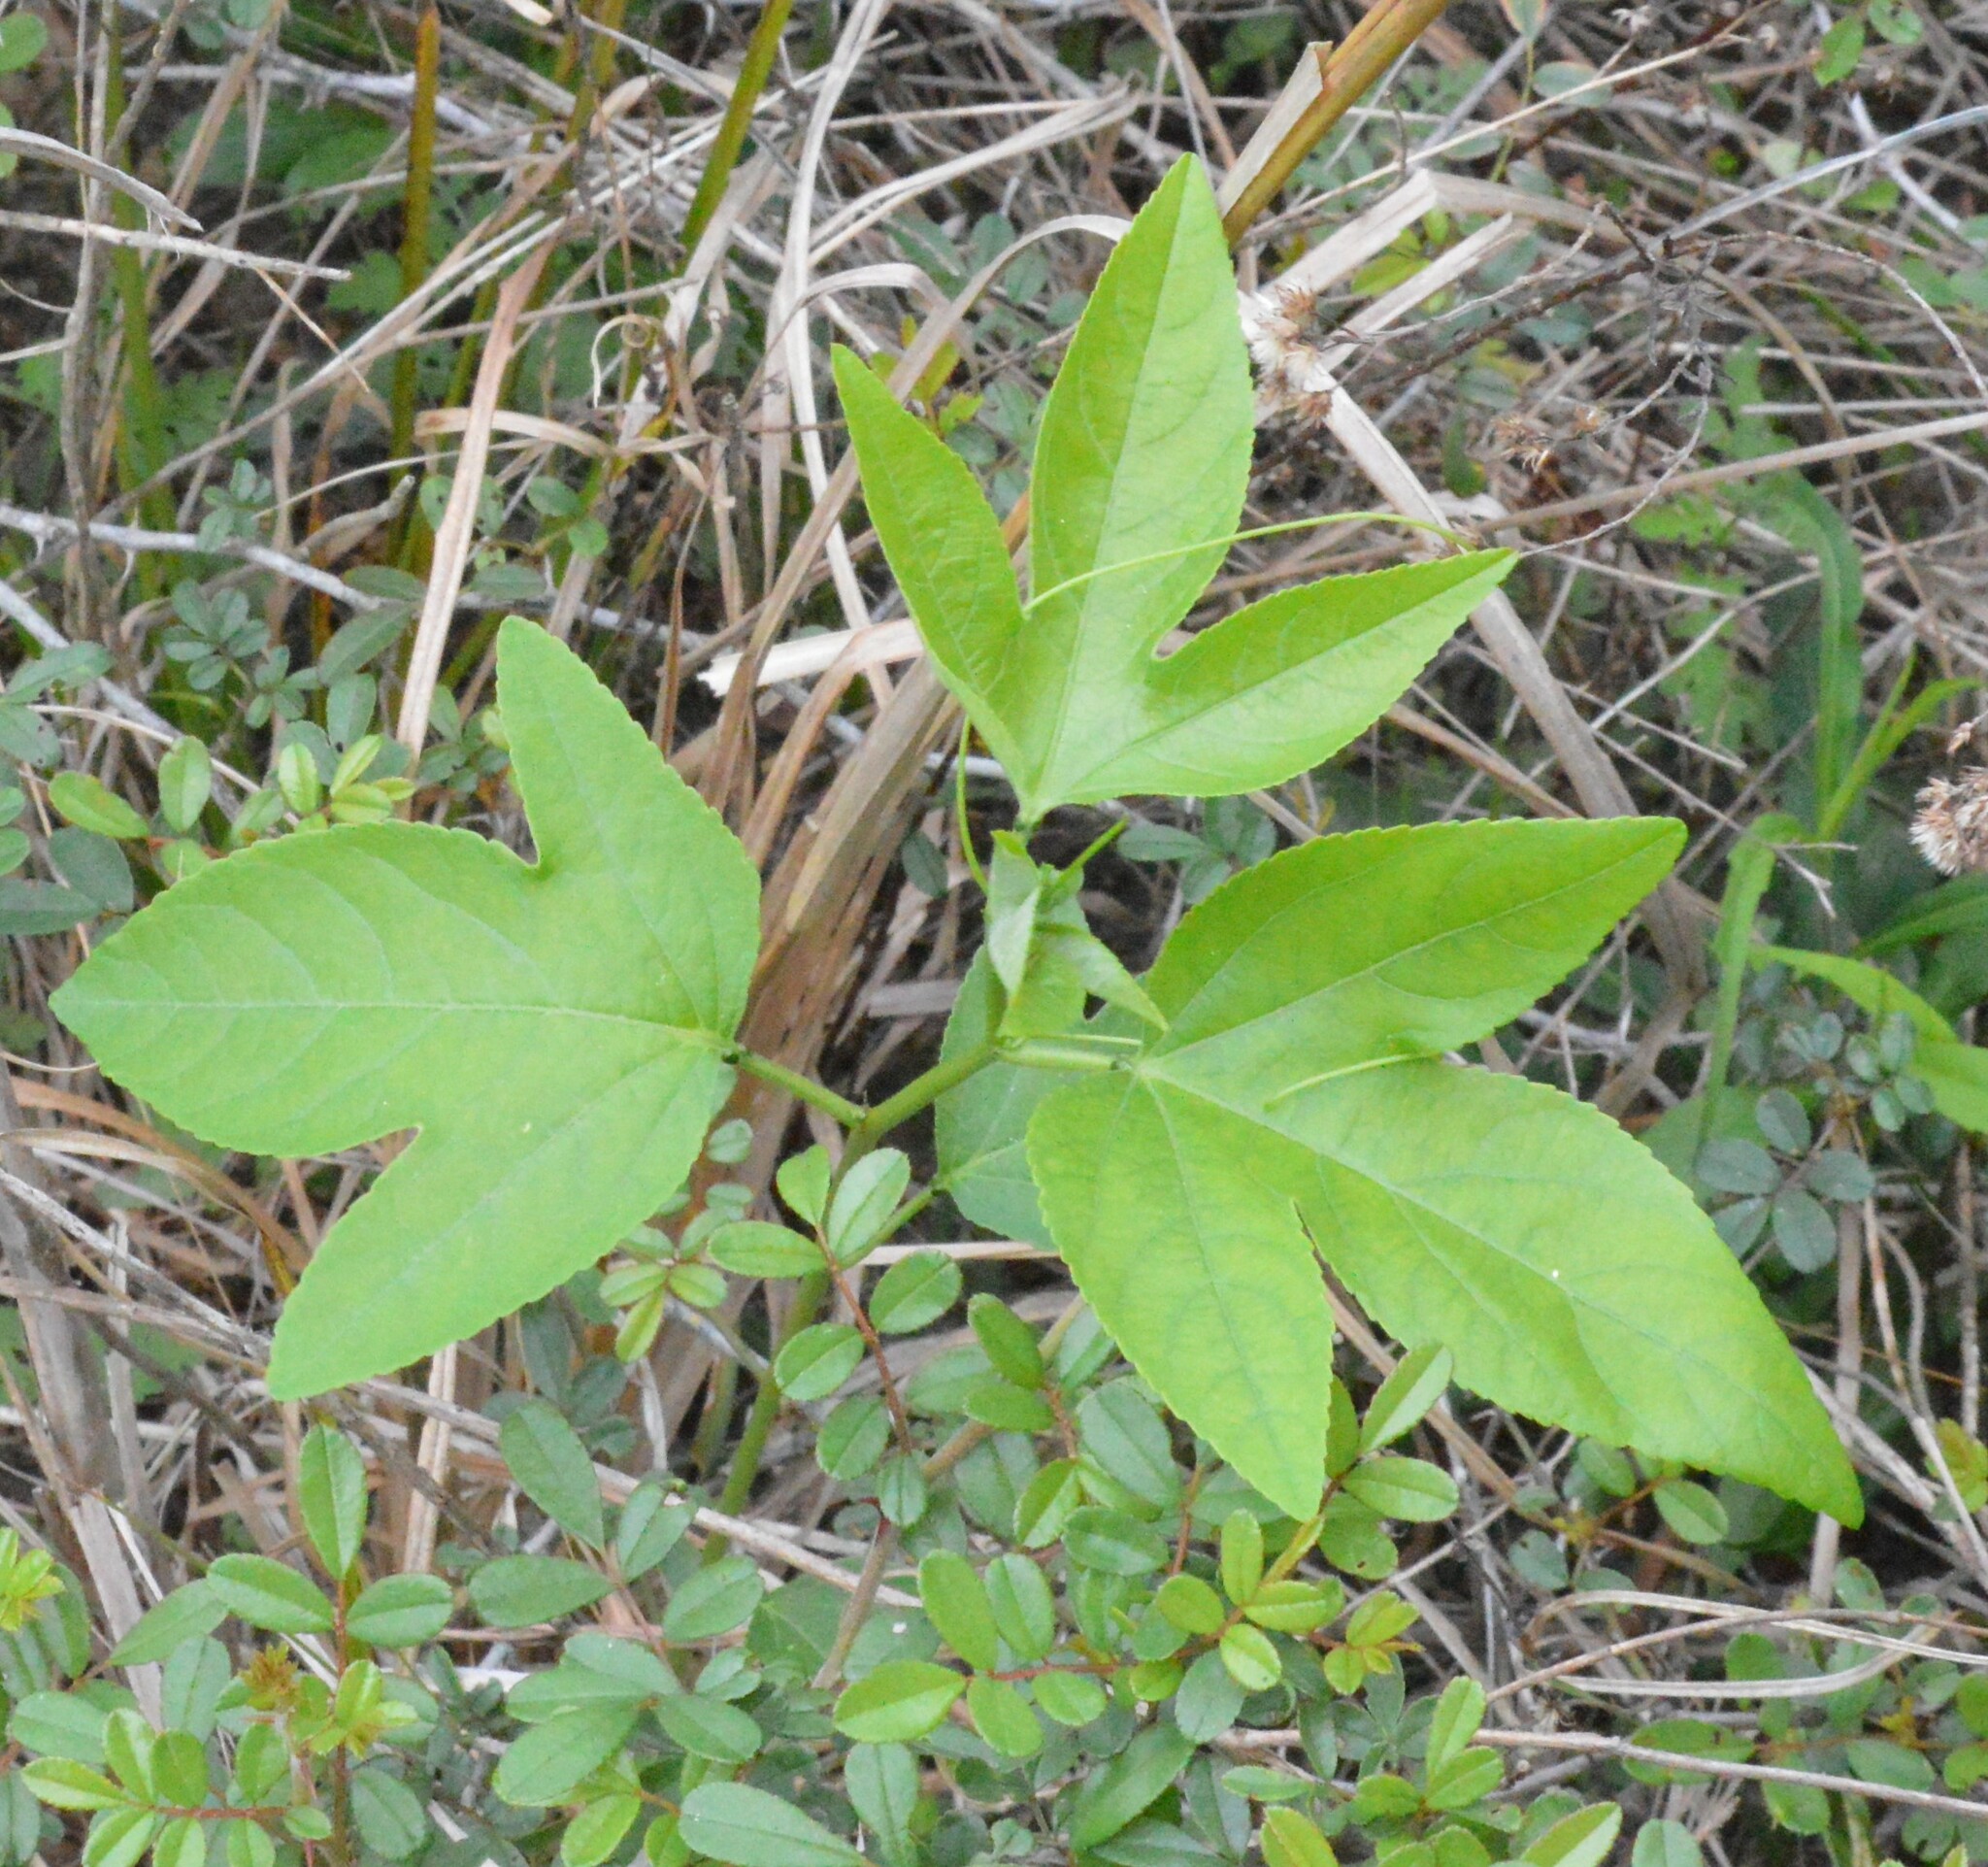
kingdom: Plantae
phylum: Tracheophyta
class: Magnoliopsida
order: Malpighiales
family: Passifloraceae
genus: Passiflora
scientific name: Passiflora incarnata
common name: Apricot-vine
